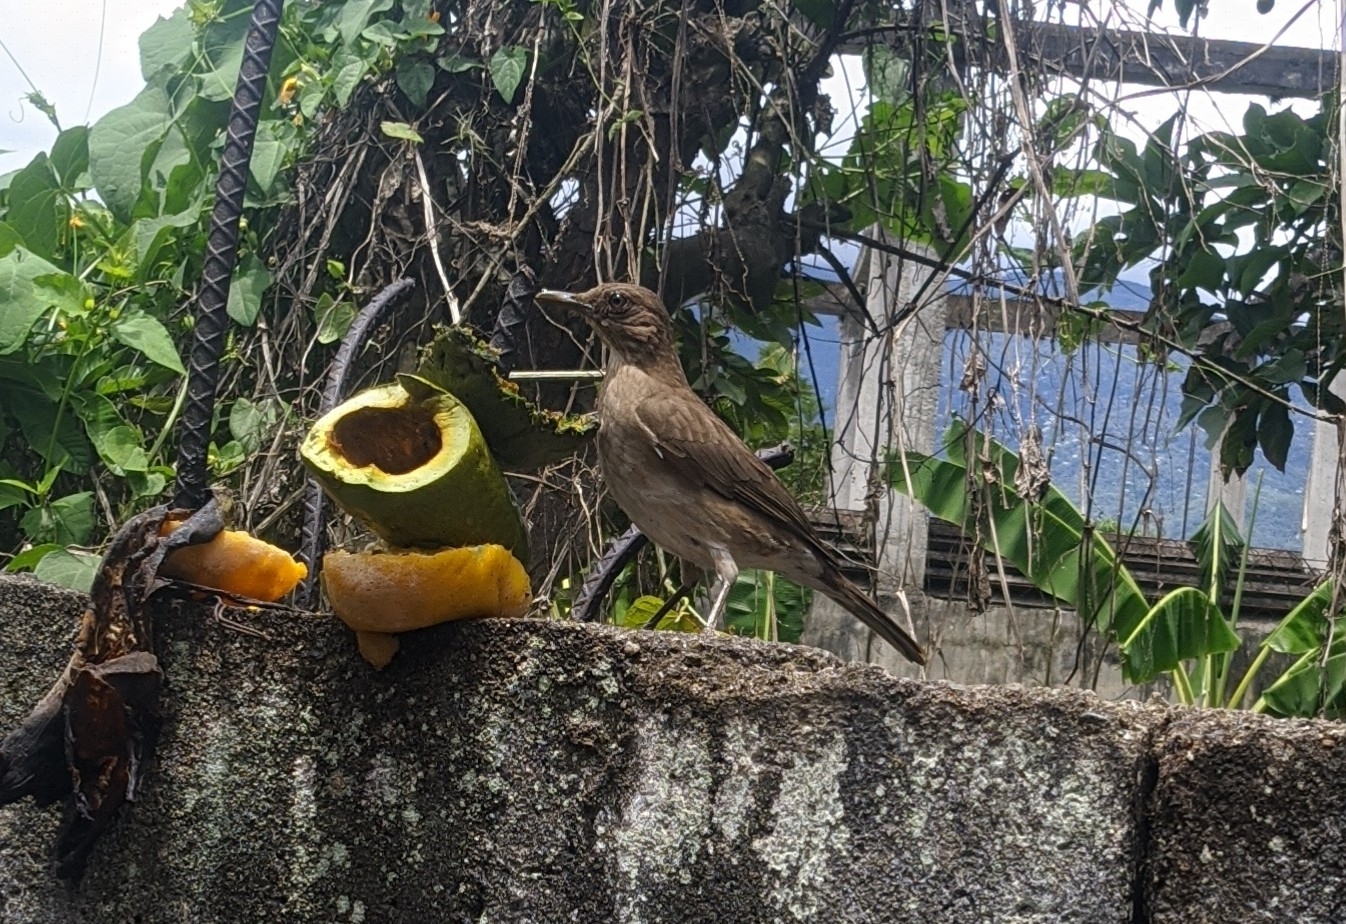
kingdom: Animalia
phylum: Chordata
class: Aves
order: Passeriformes
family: Turdidae
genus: Turdus
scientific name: Turdus ignobilis
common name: Black-billed thrush
